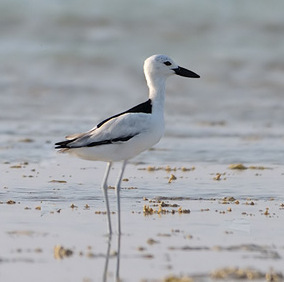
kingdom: Animalia
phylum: Chordata
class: Aves
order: Charadriiformes
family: Dromadidae
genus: Dromas
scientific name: Dromas ardeola
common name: Crab-plover
